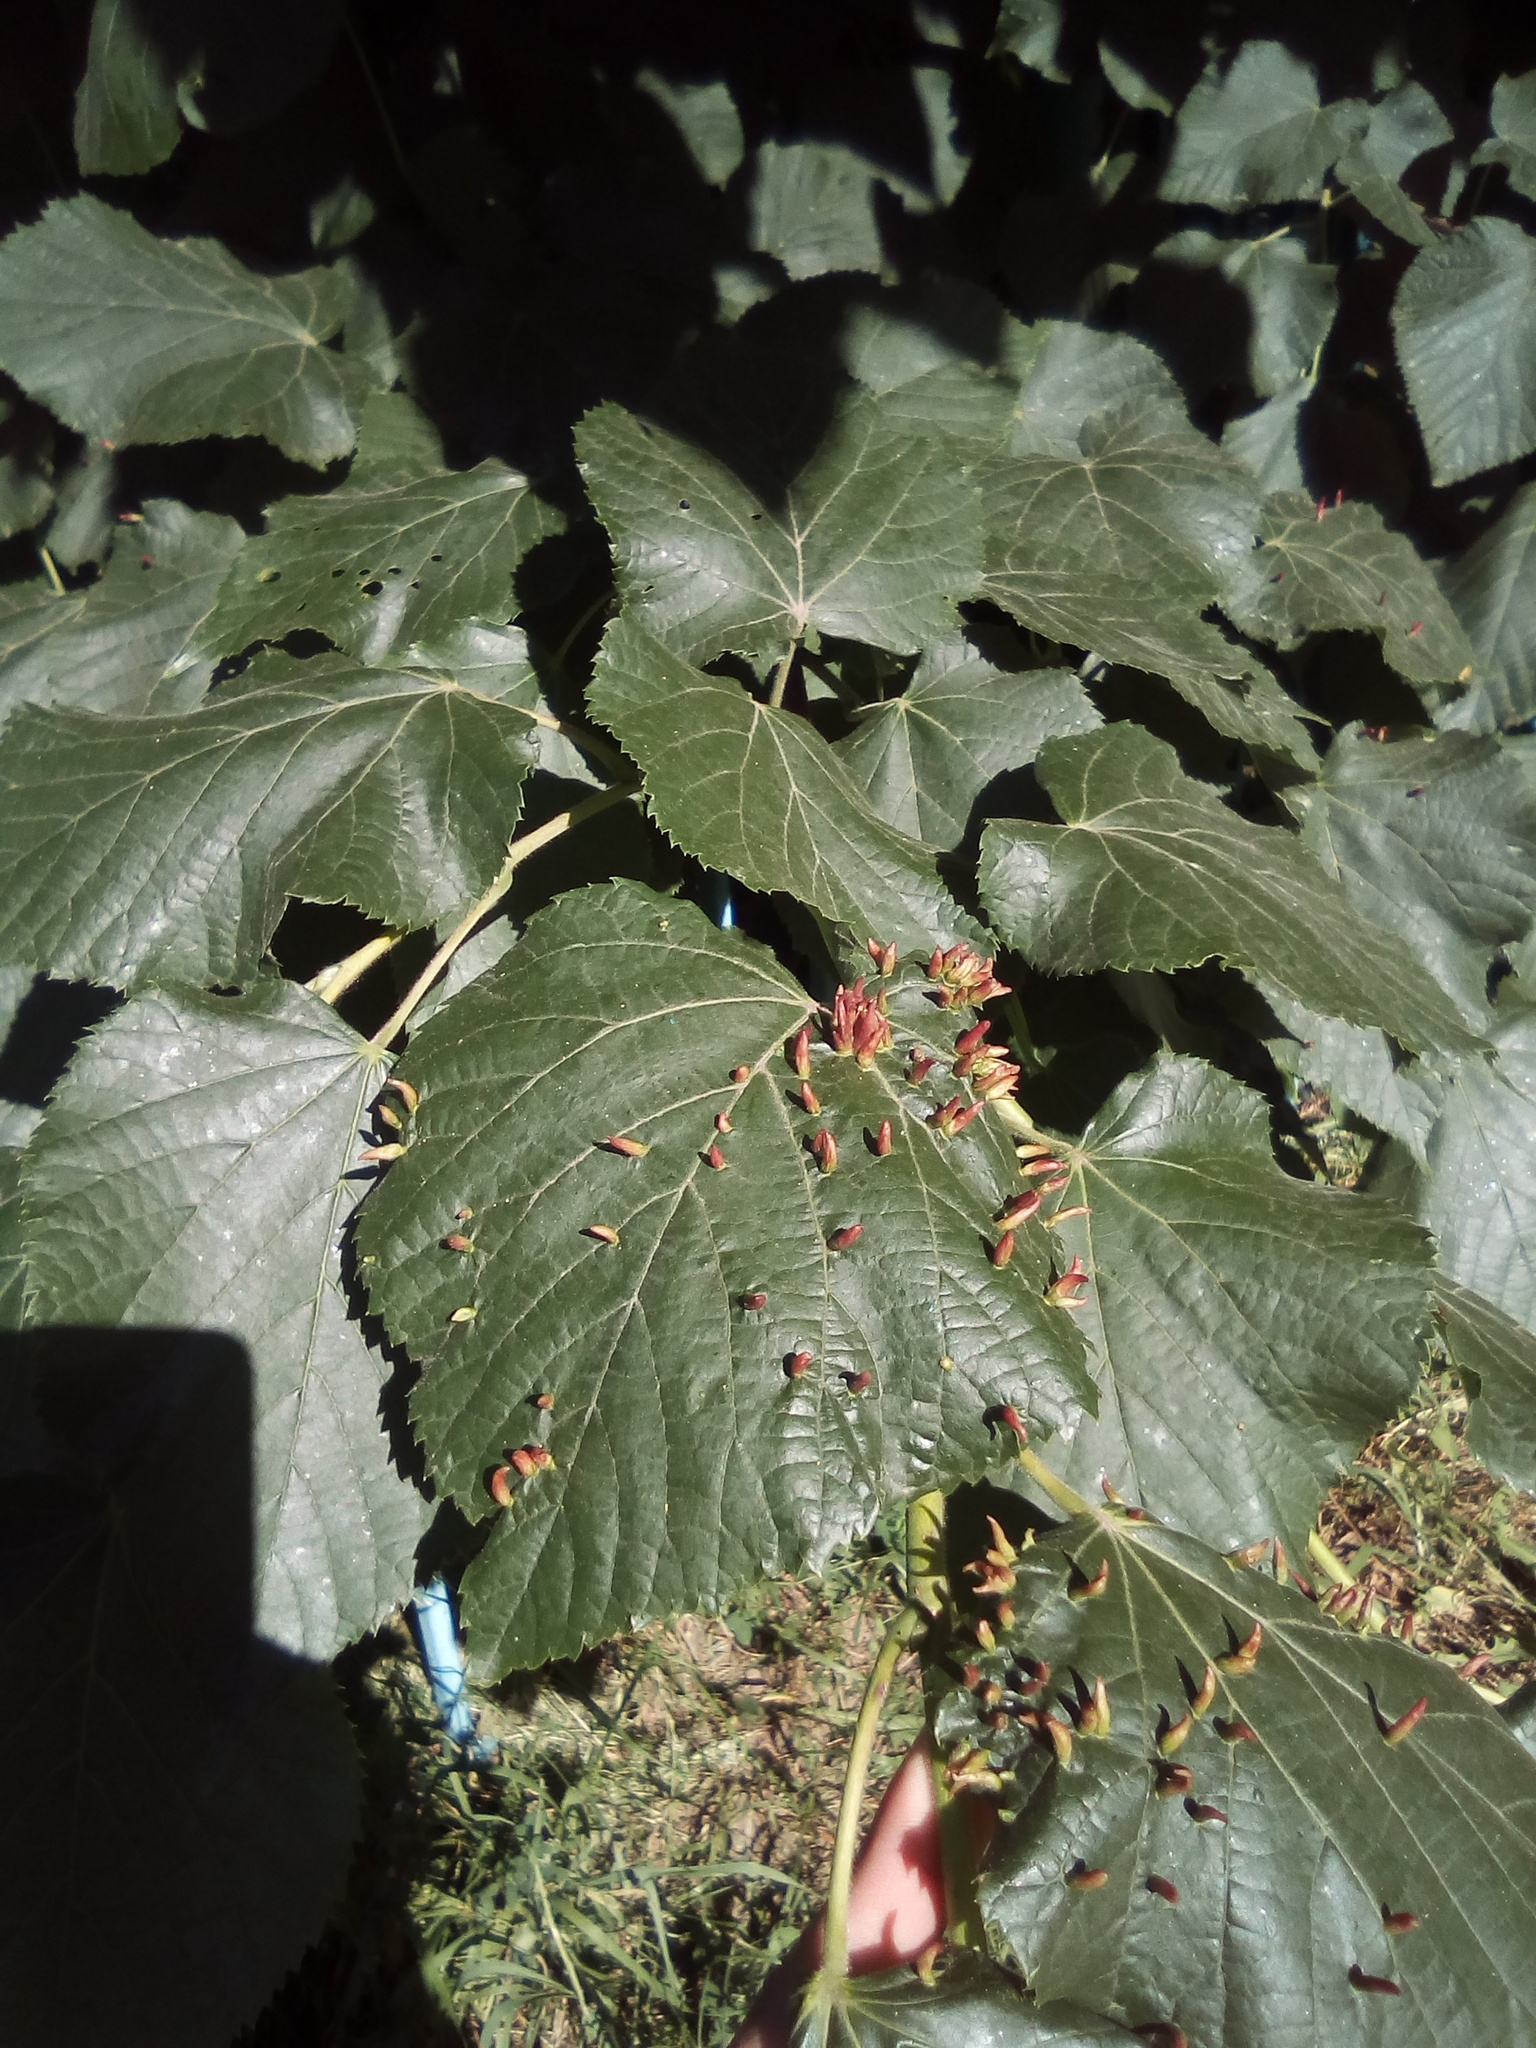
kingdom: Animalia
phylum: Arthropoda
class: Arachnida
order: Trombidiformes
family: Eriophyidae
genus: Eriophyes
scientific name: Eriophyes tiliae
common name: Red nail gall mite
